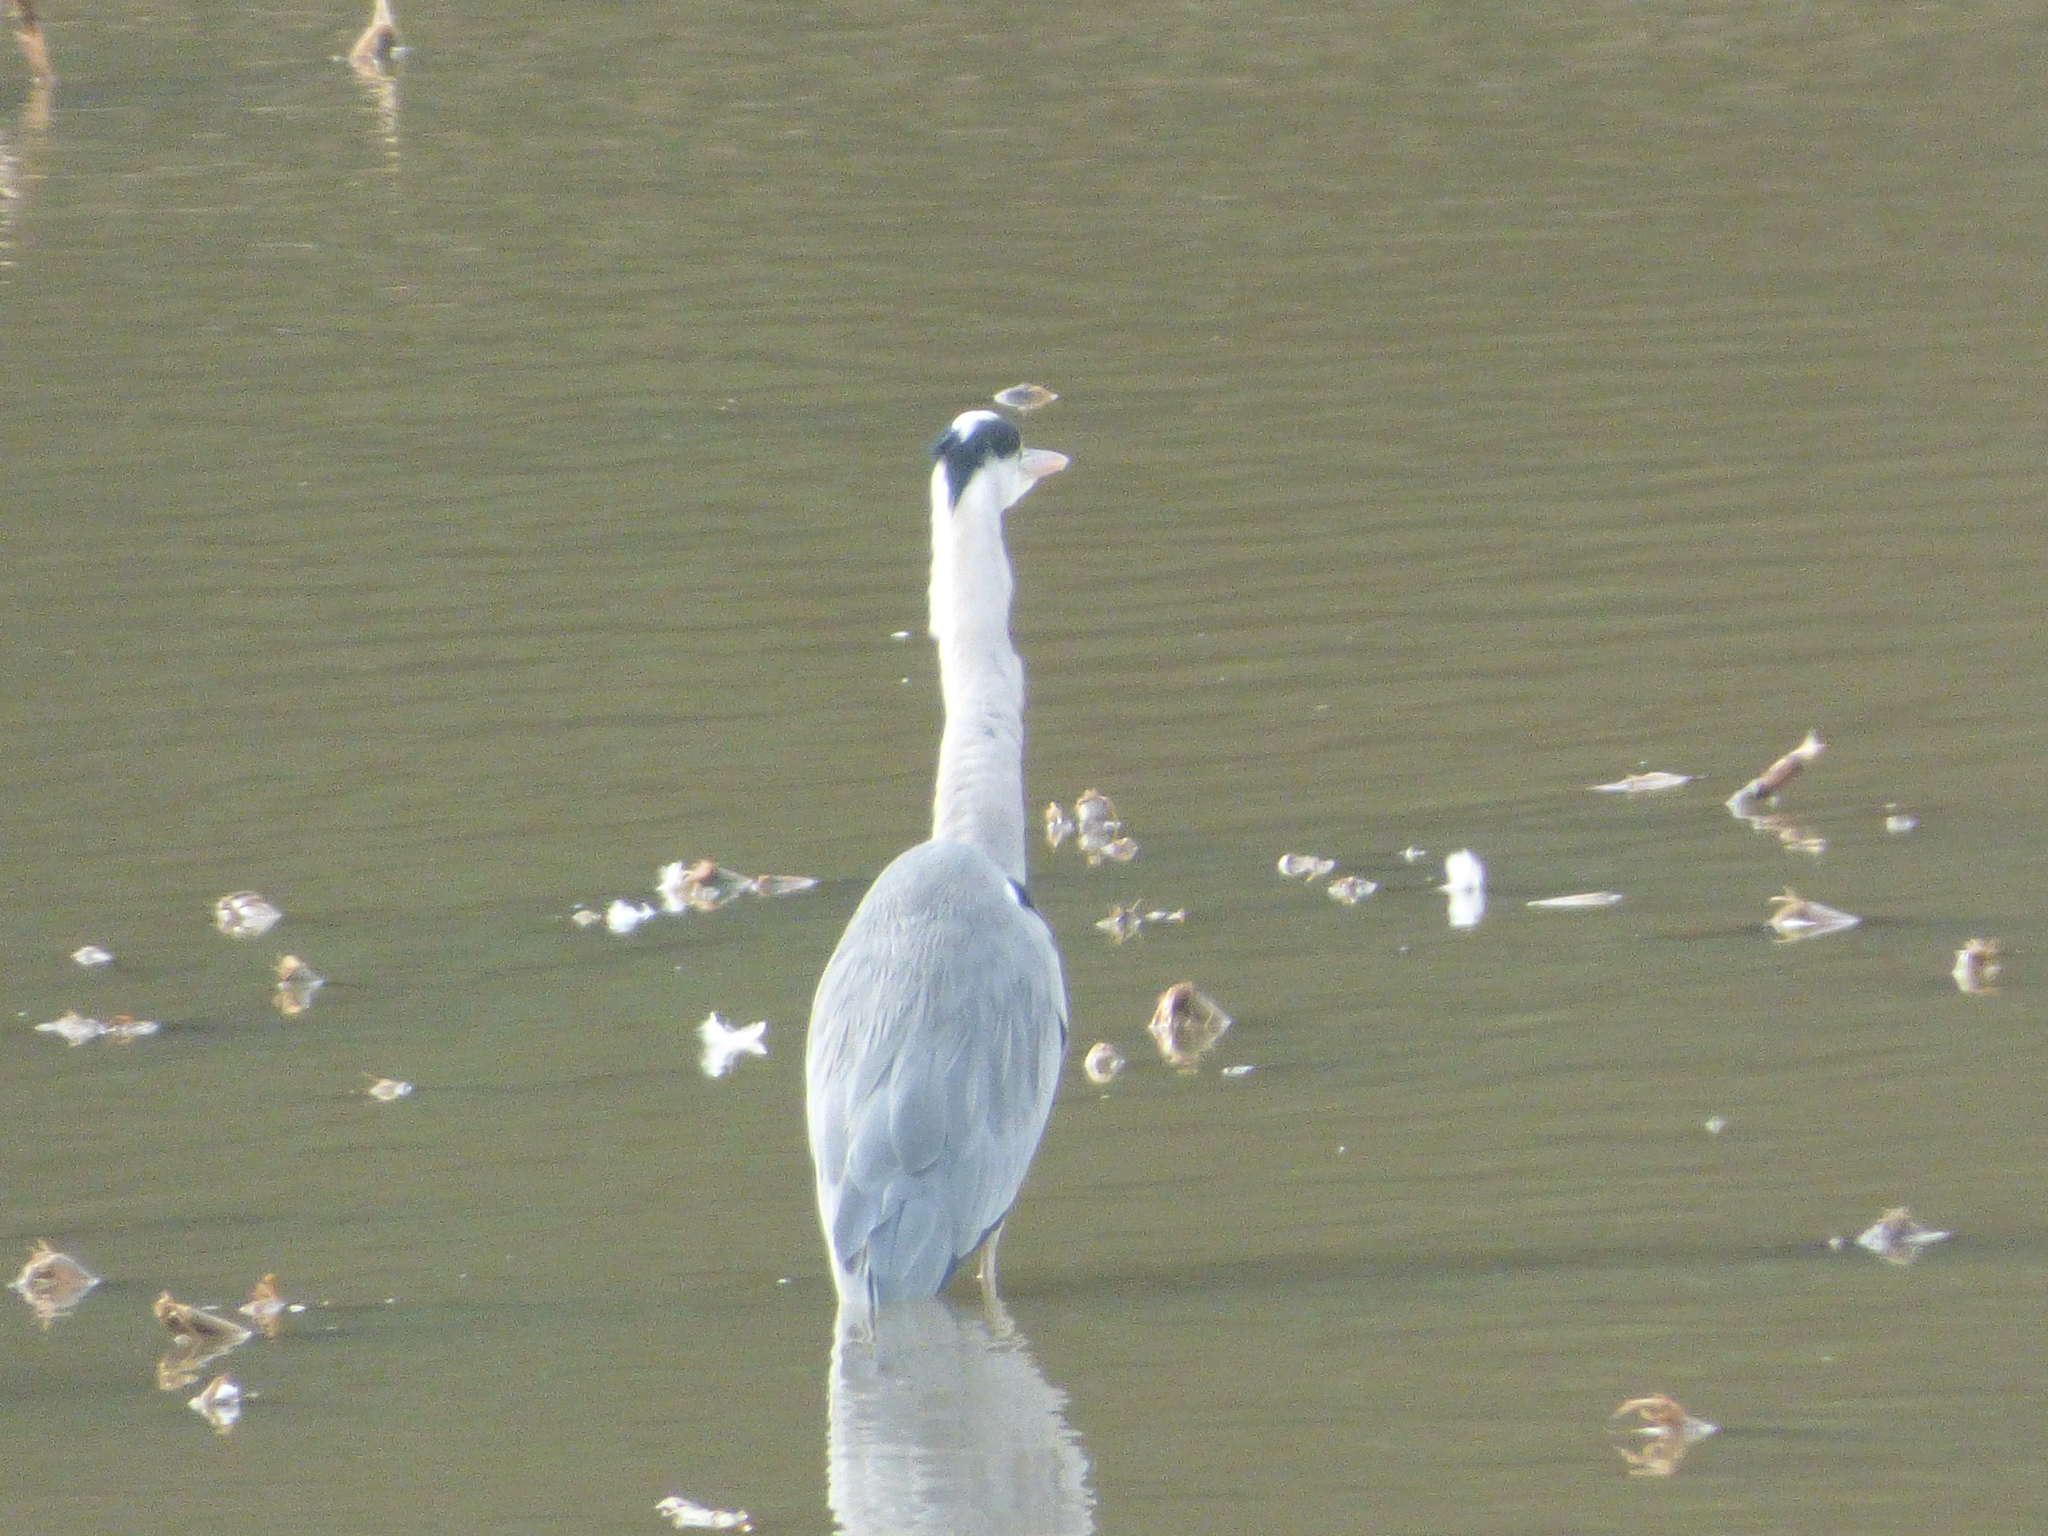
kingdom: Animalia
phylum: Chordata
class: Aves
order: Pelecaniformes
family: Ardeidae
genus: Ardea
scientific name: Ardea cinerea
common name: Grey heron
